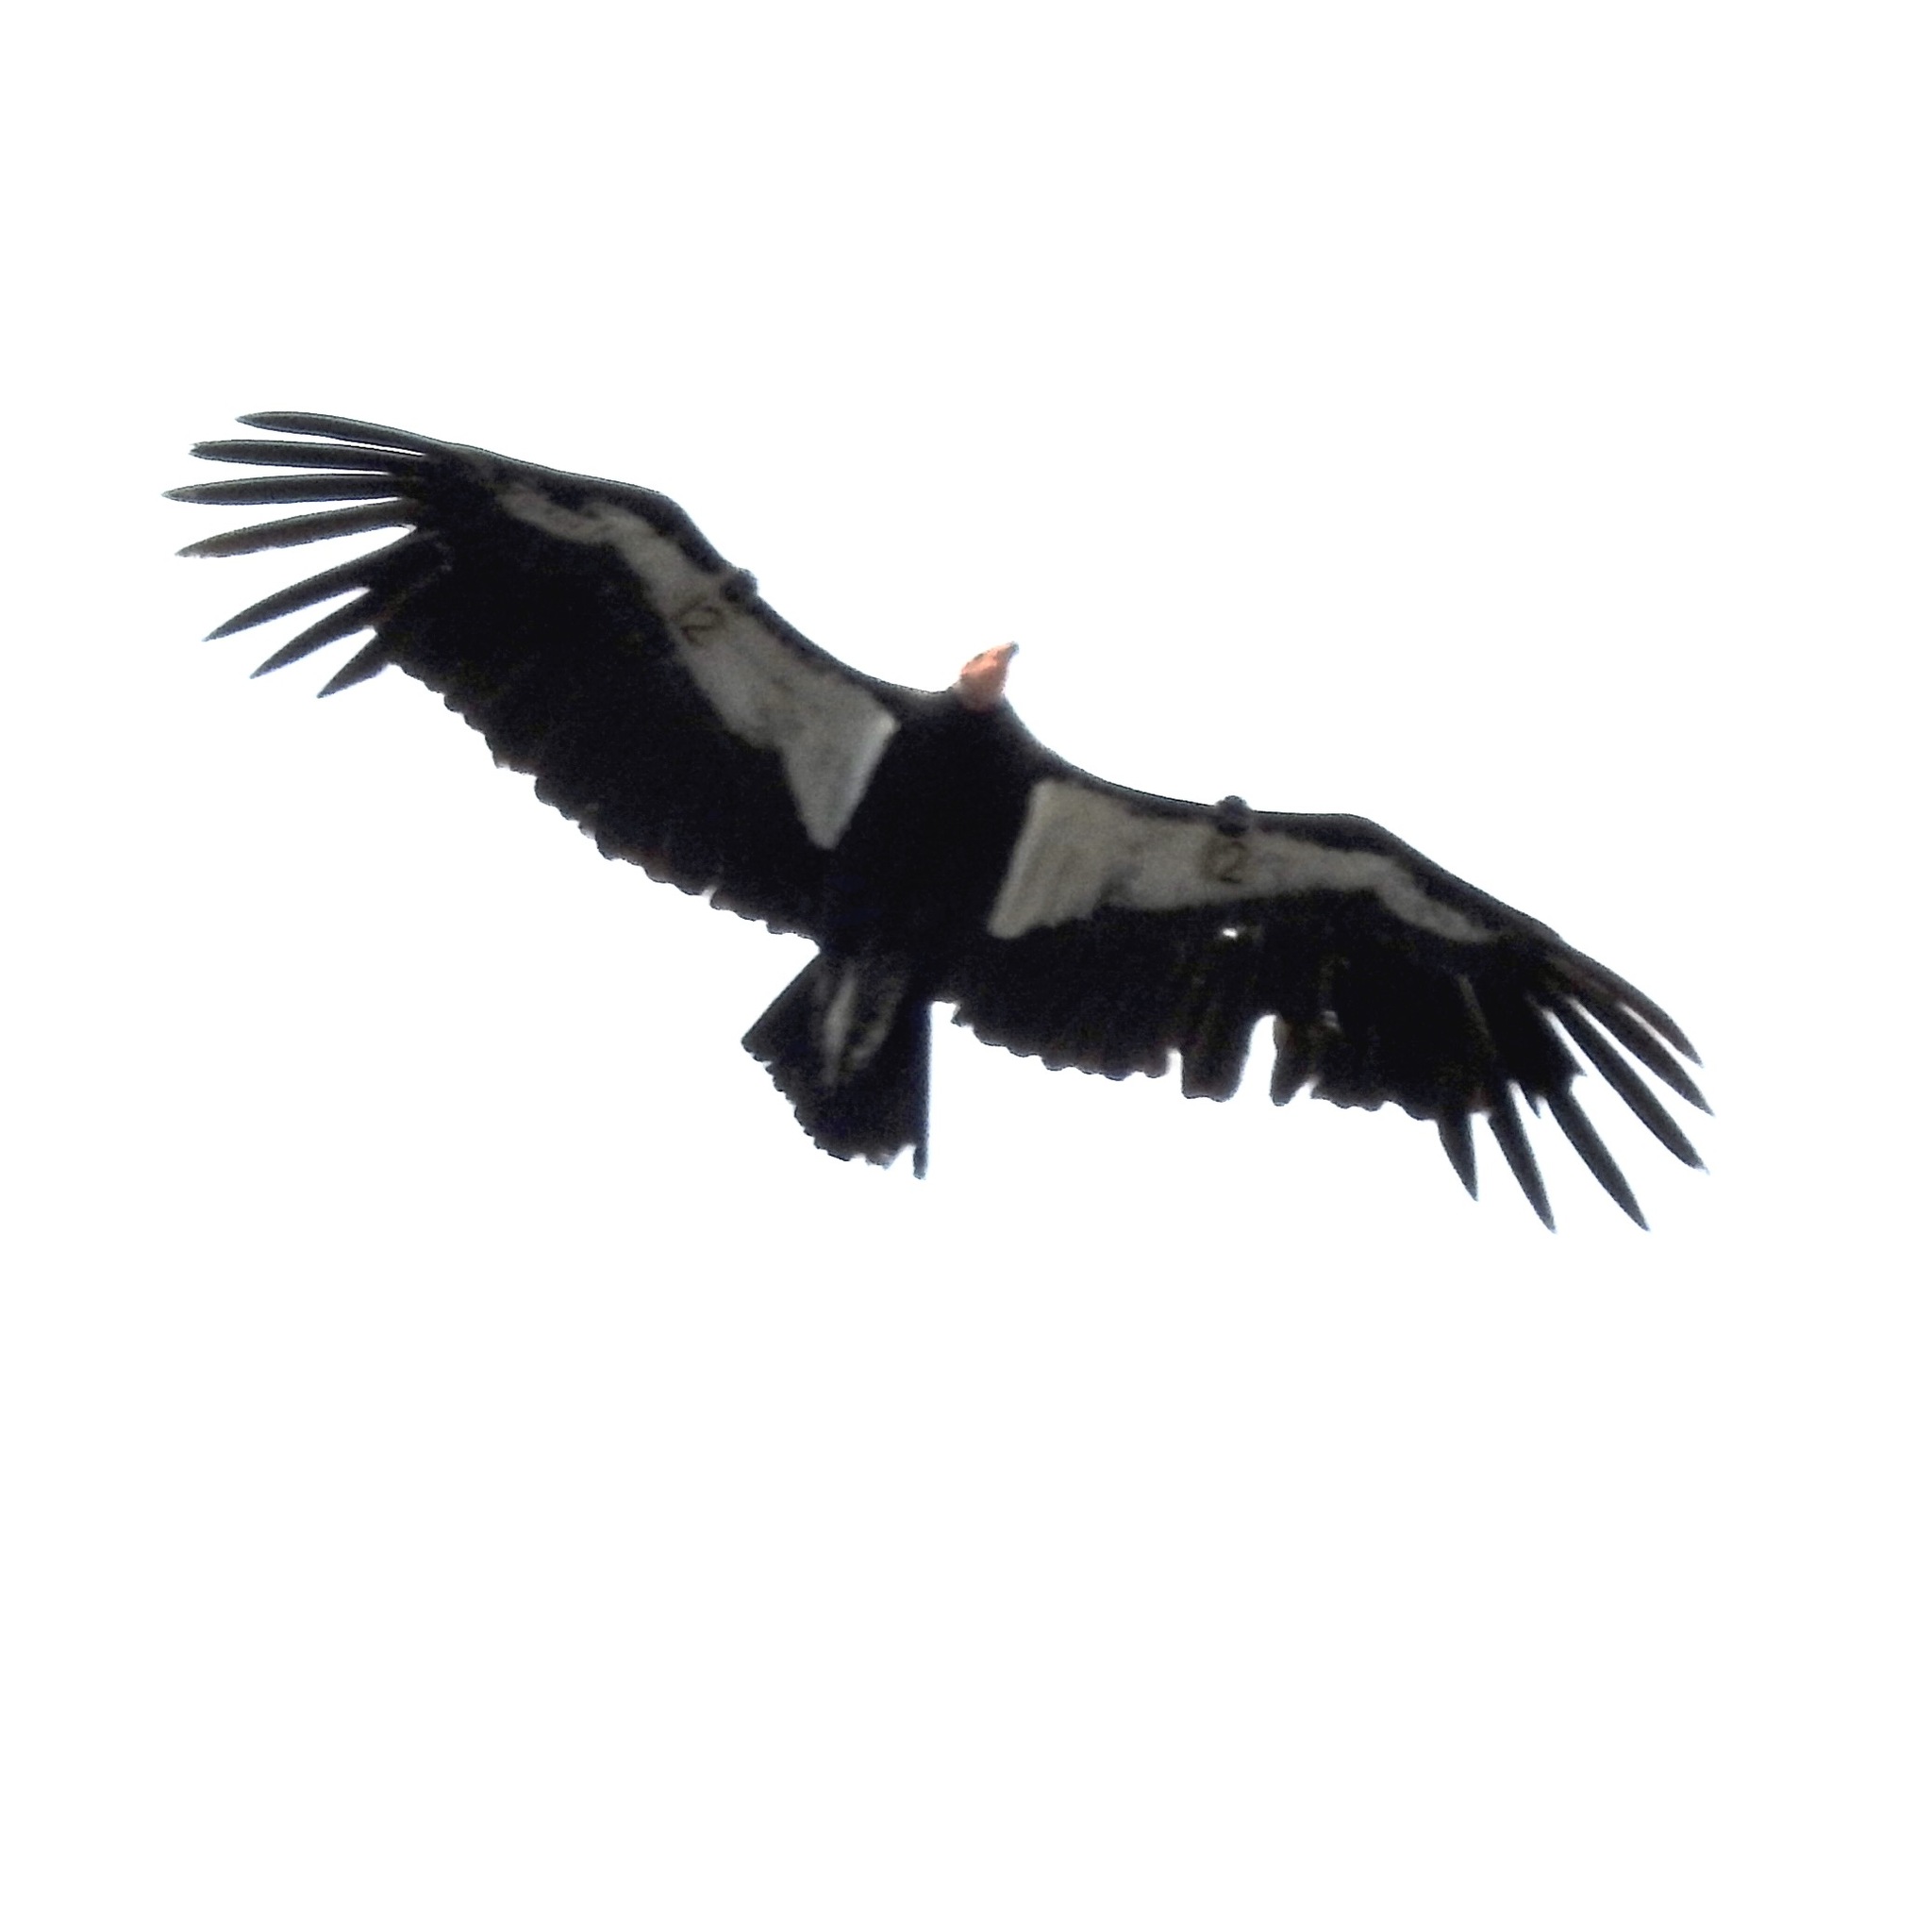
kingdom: Animalia
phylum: Chordata
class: Aves
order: Accipitriformes
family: Cathartidae
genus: Gymnogyps
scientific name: Gymnogyps californianus
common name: California condor
